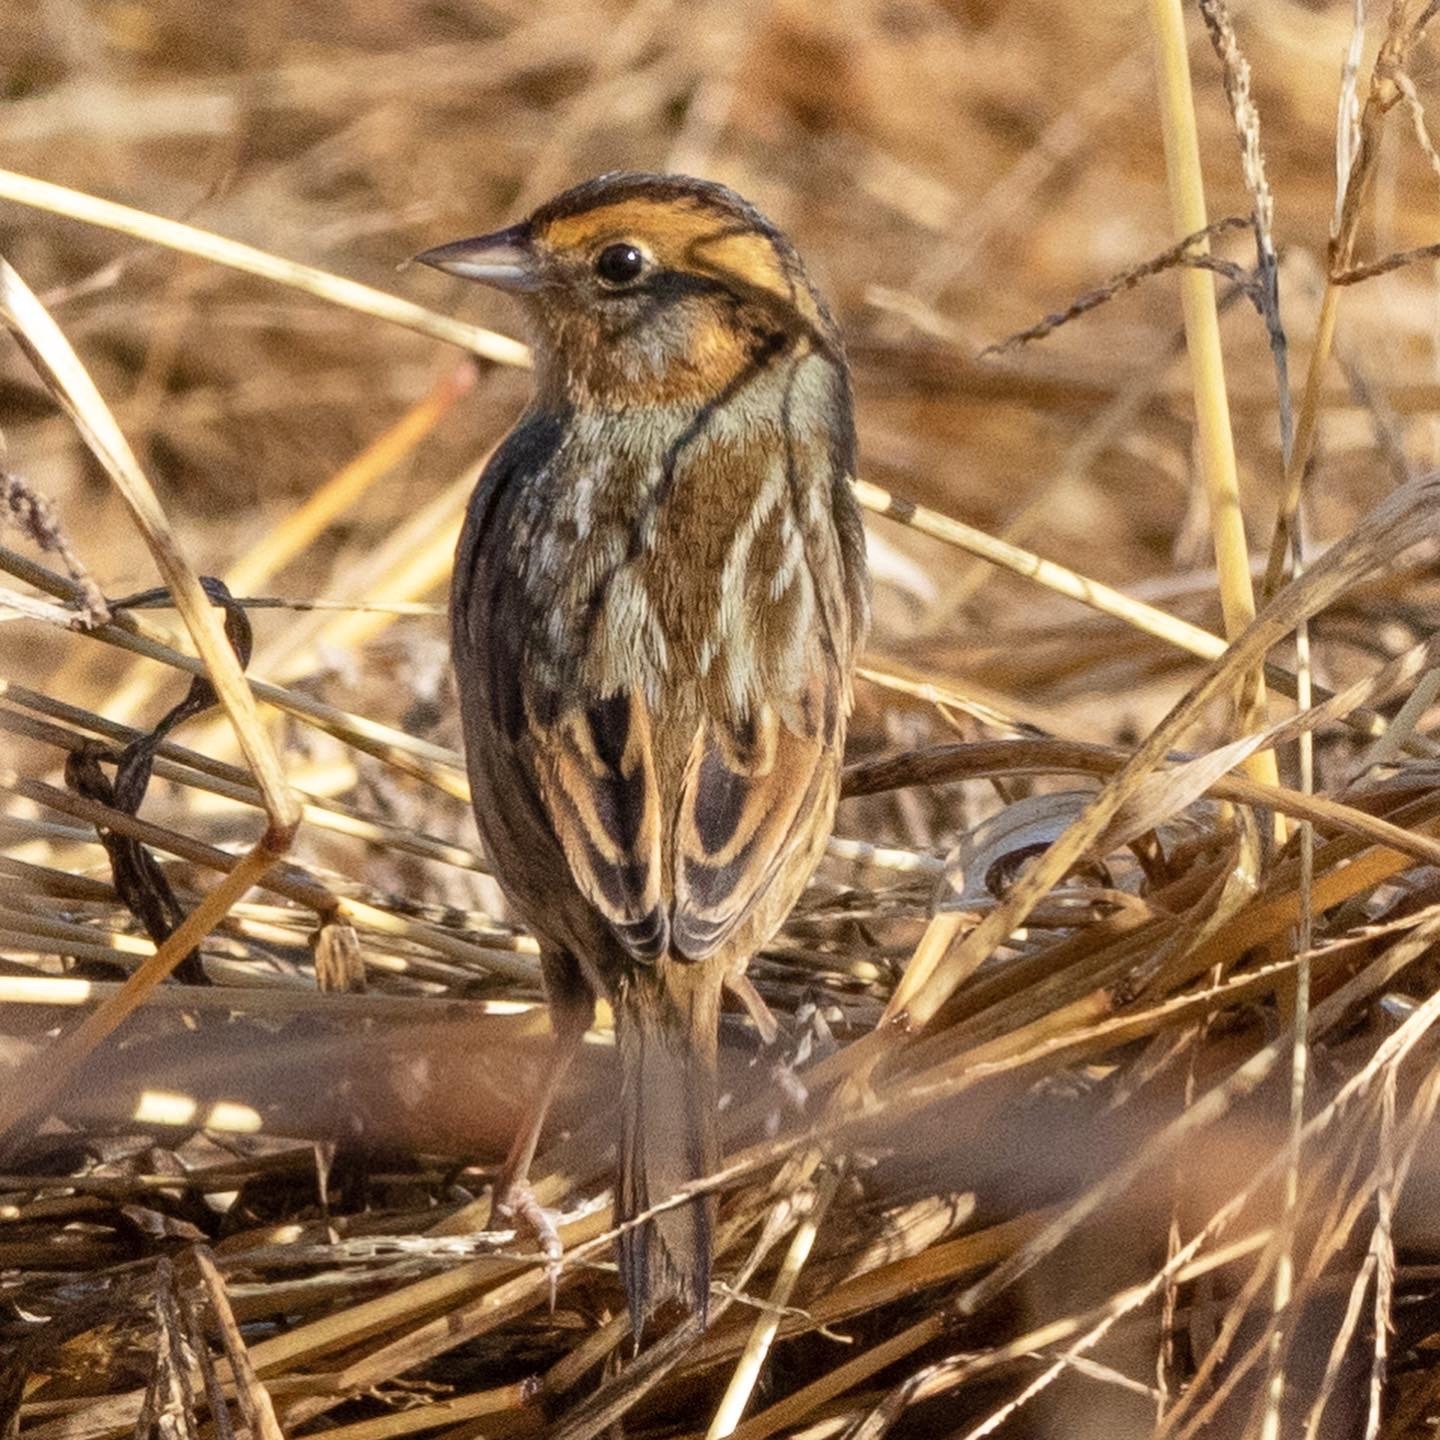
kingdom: Animalia
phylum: Chordata
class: Aves
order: Passeriformes
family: Passerellidae
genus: Ammospiza
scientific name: Ammospiza nelsoni
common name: Nelson's sparrow
